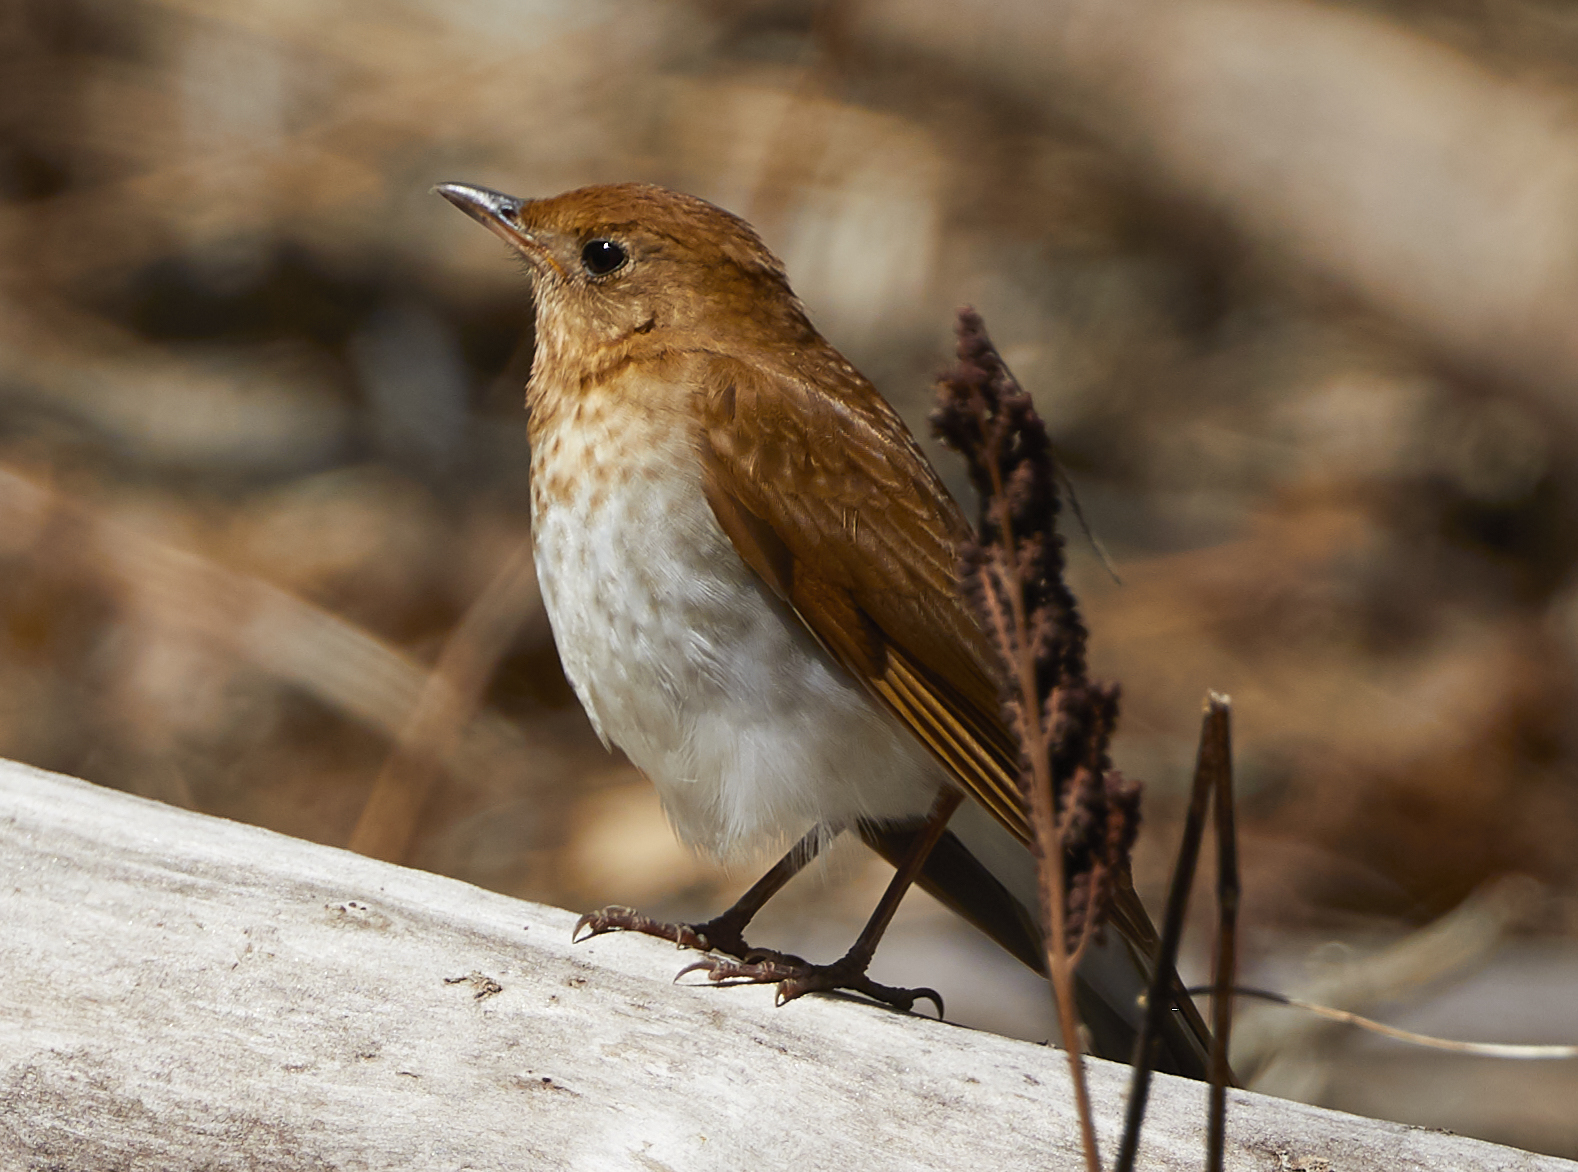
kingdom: Animalia
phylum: Chordata
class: Aves
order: Passeriformes
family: Turdidae
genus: Catharus
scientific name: Catharus fuscescens
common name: Veery
